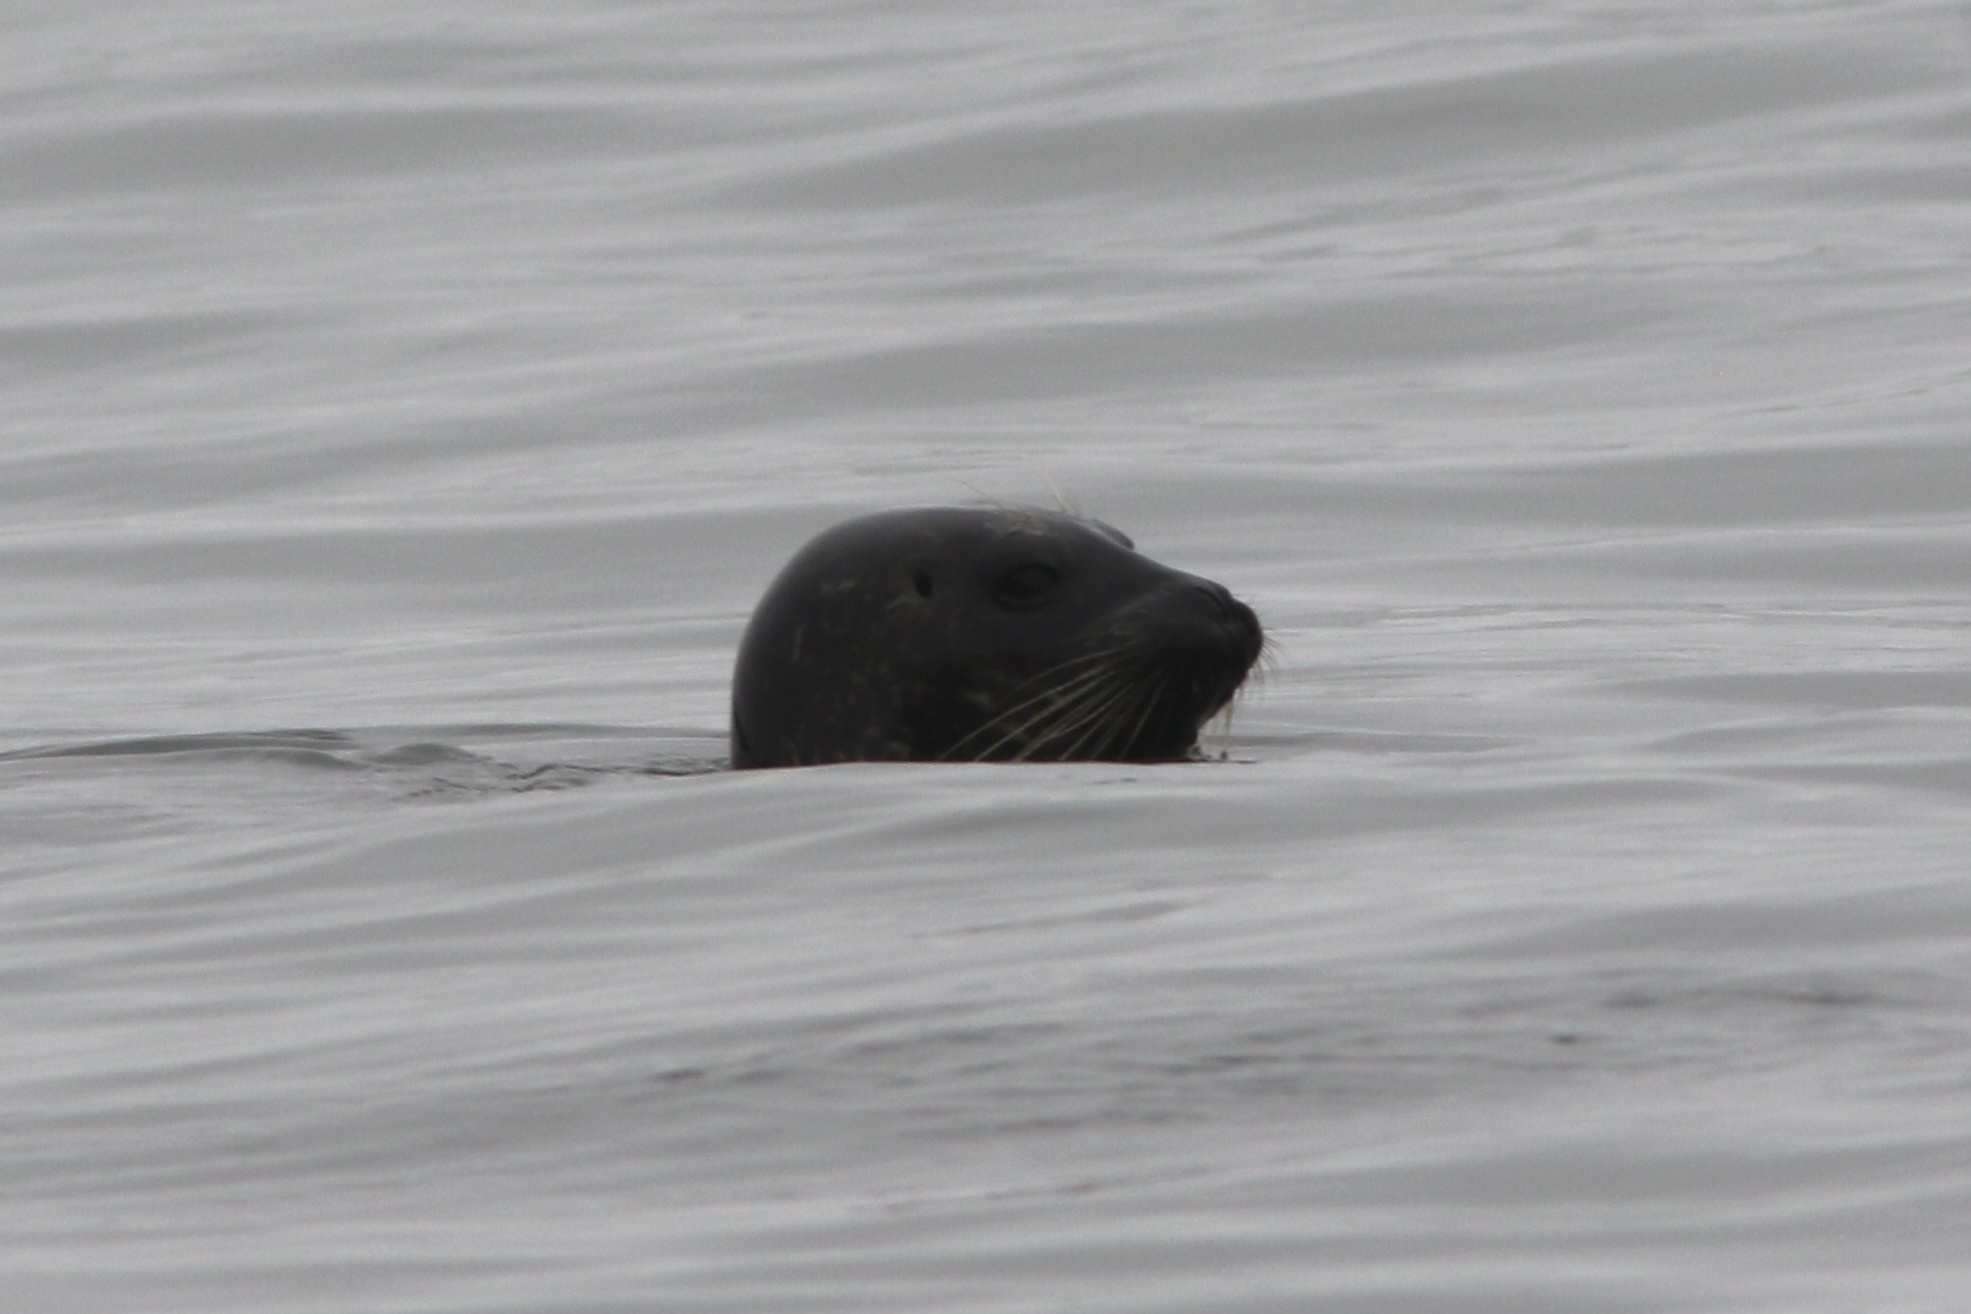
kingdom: Animalia
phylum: Chordata
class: Mammalia
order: Carnivora
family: Phocidae
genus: Phoca
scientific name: Phoca vitulina
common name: Harbor seal
